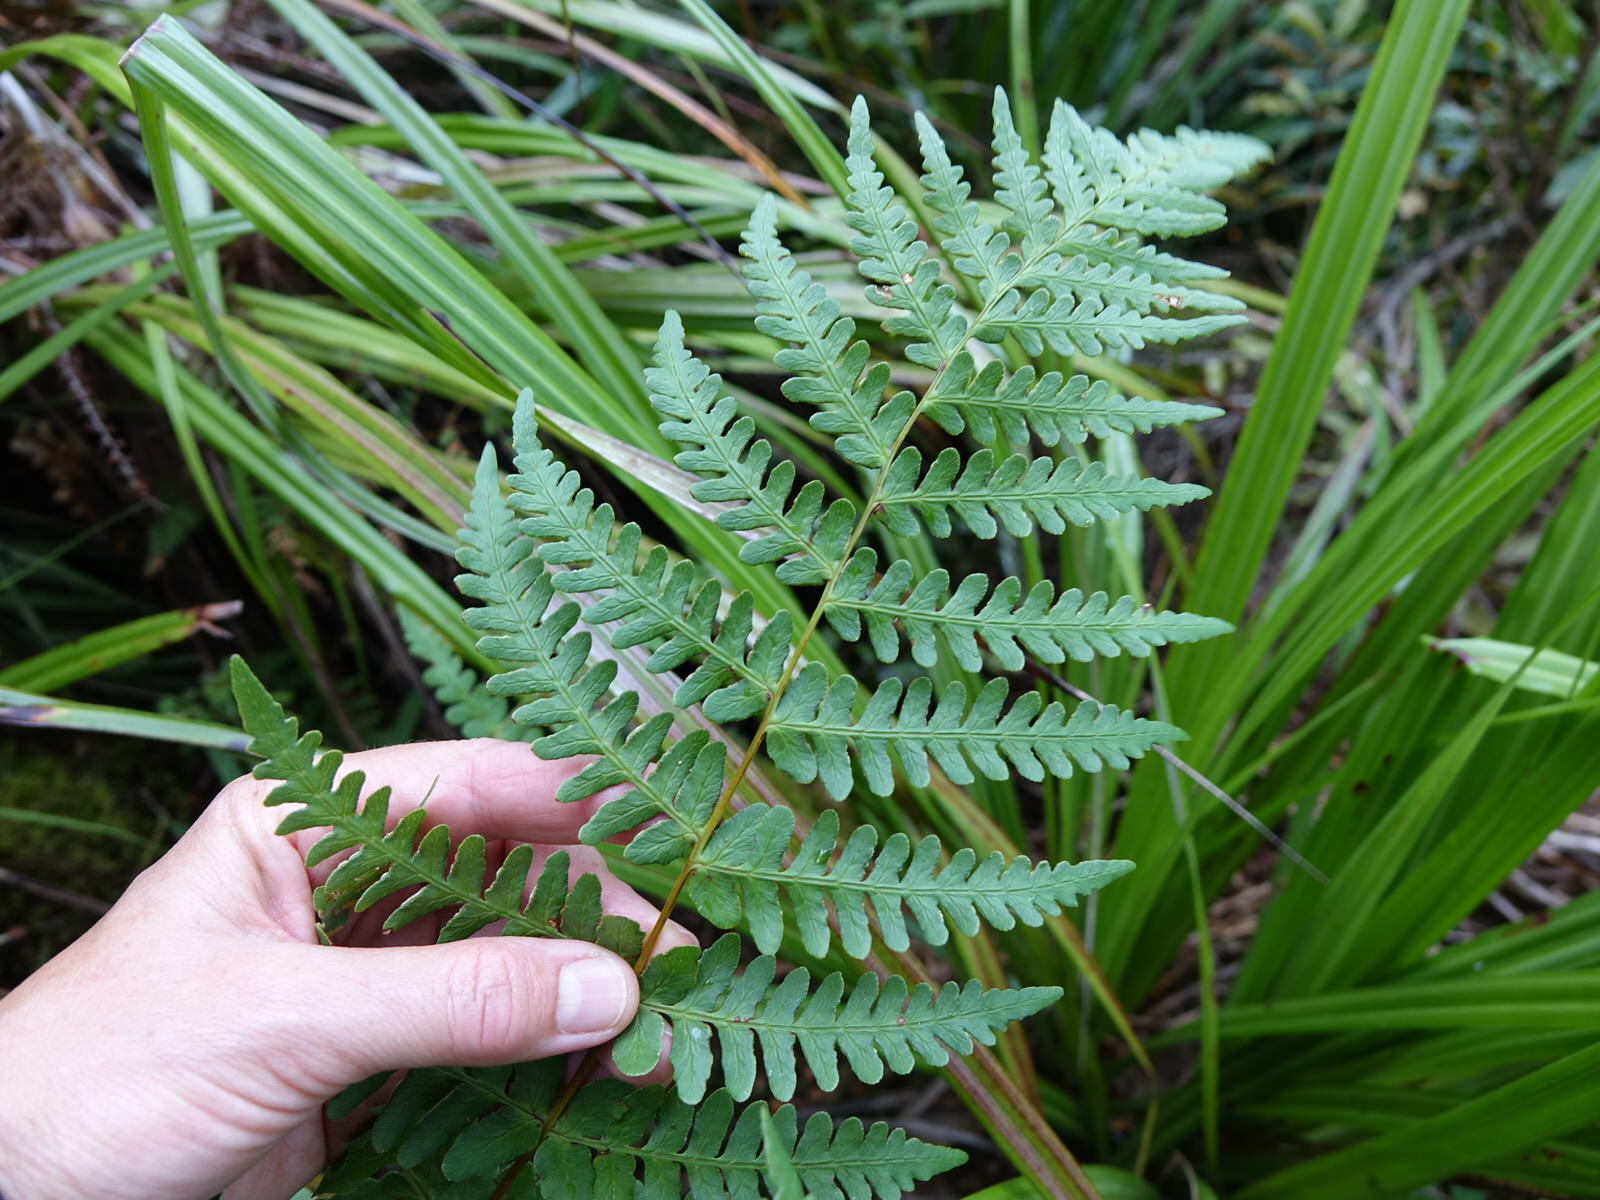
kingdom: Plantae
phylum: Tracheophyta
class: Polypodiopsida
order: Polypodiales
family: Dennstaedtiaceae
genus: Histiopteris
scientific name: Histiopteris incisa
